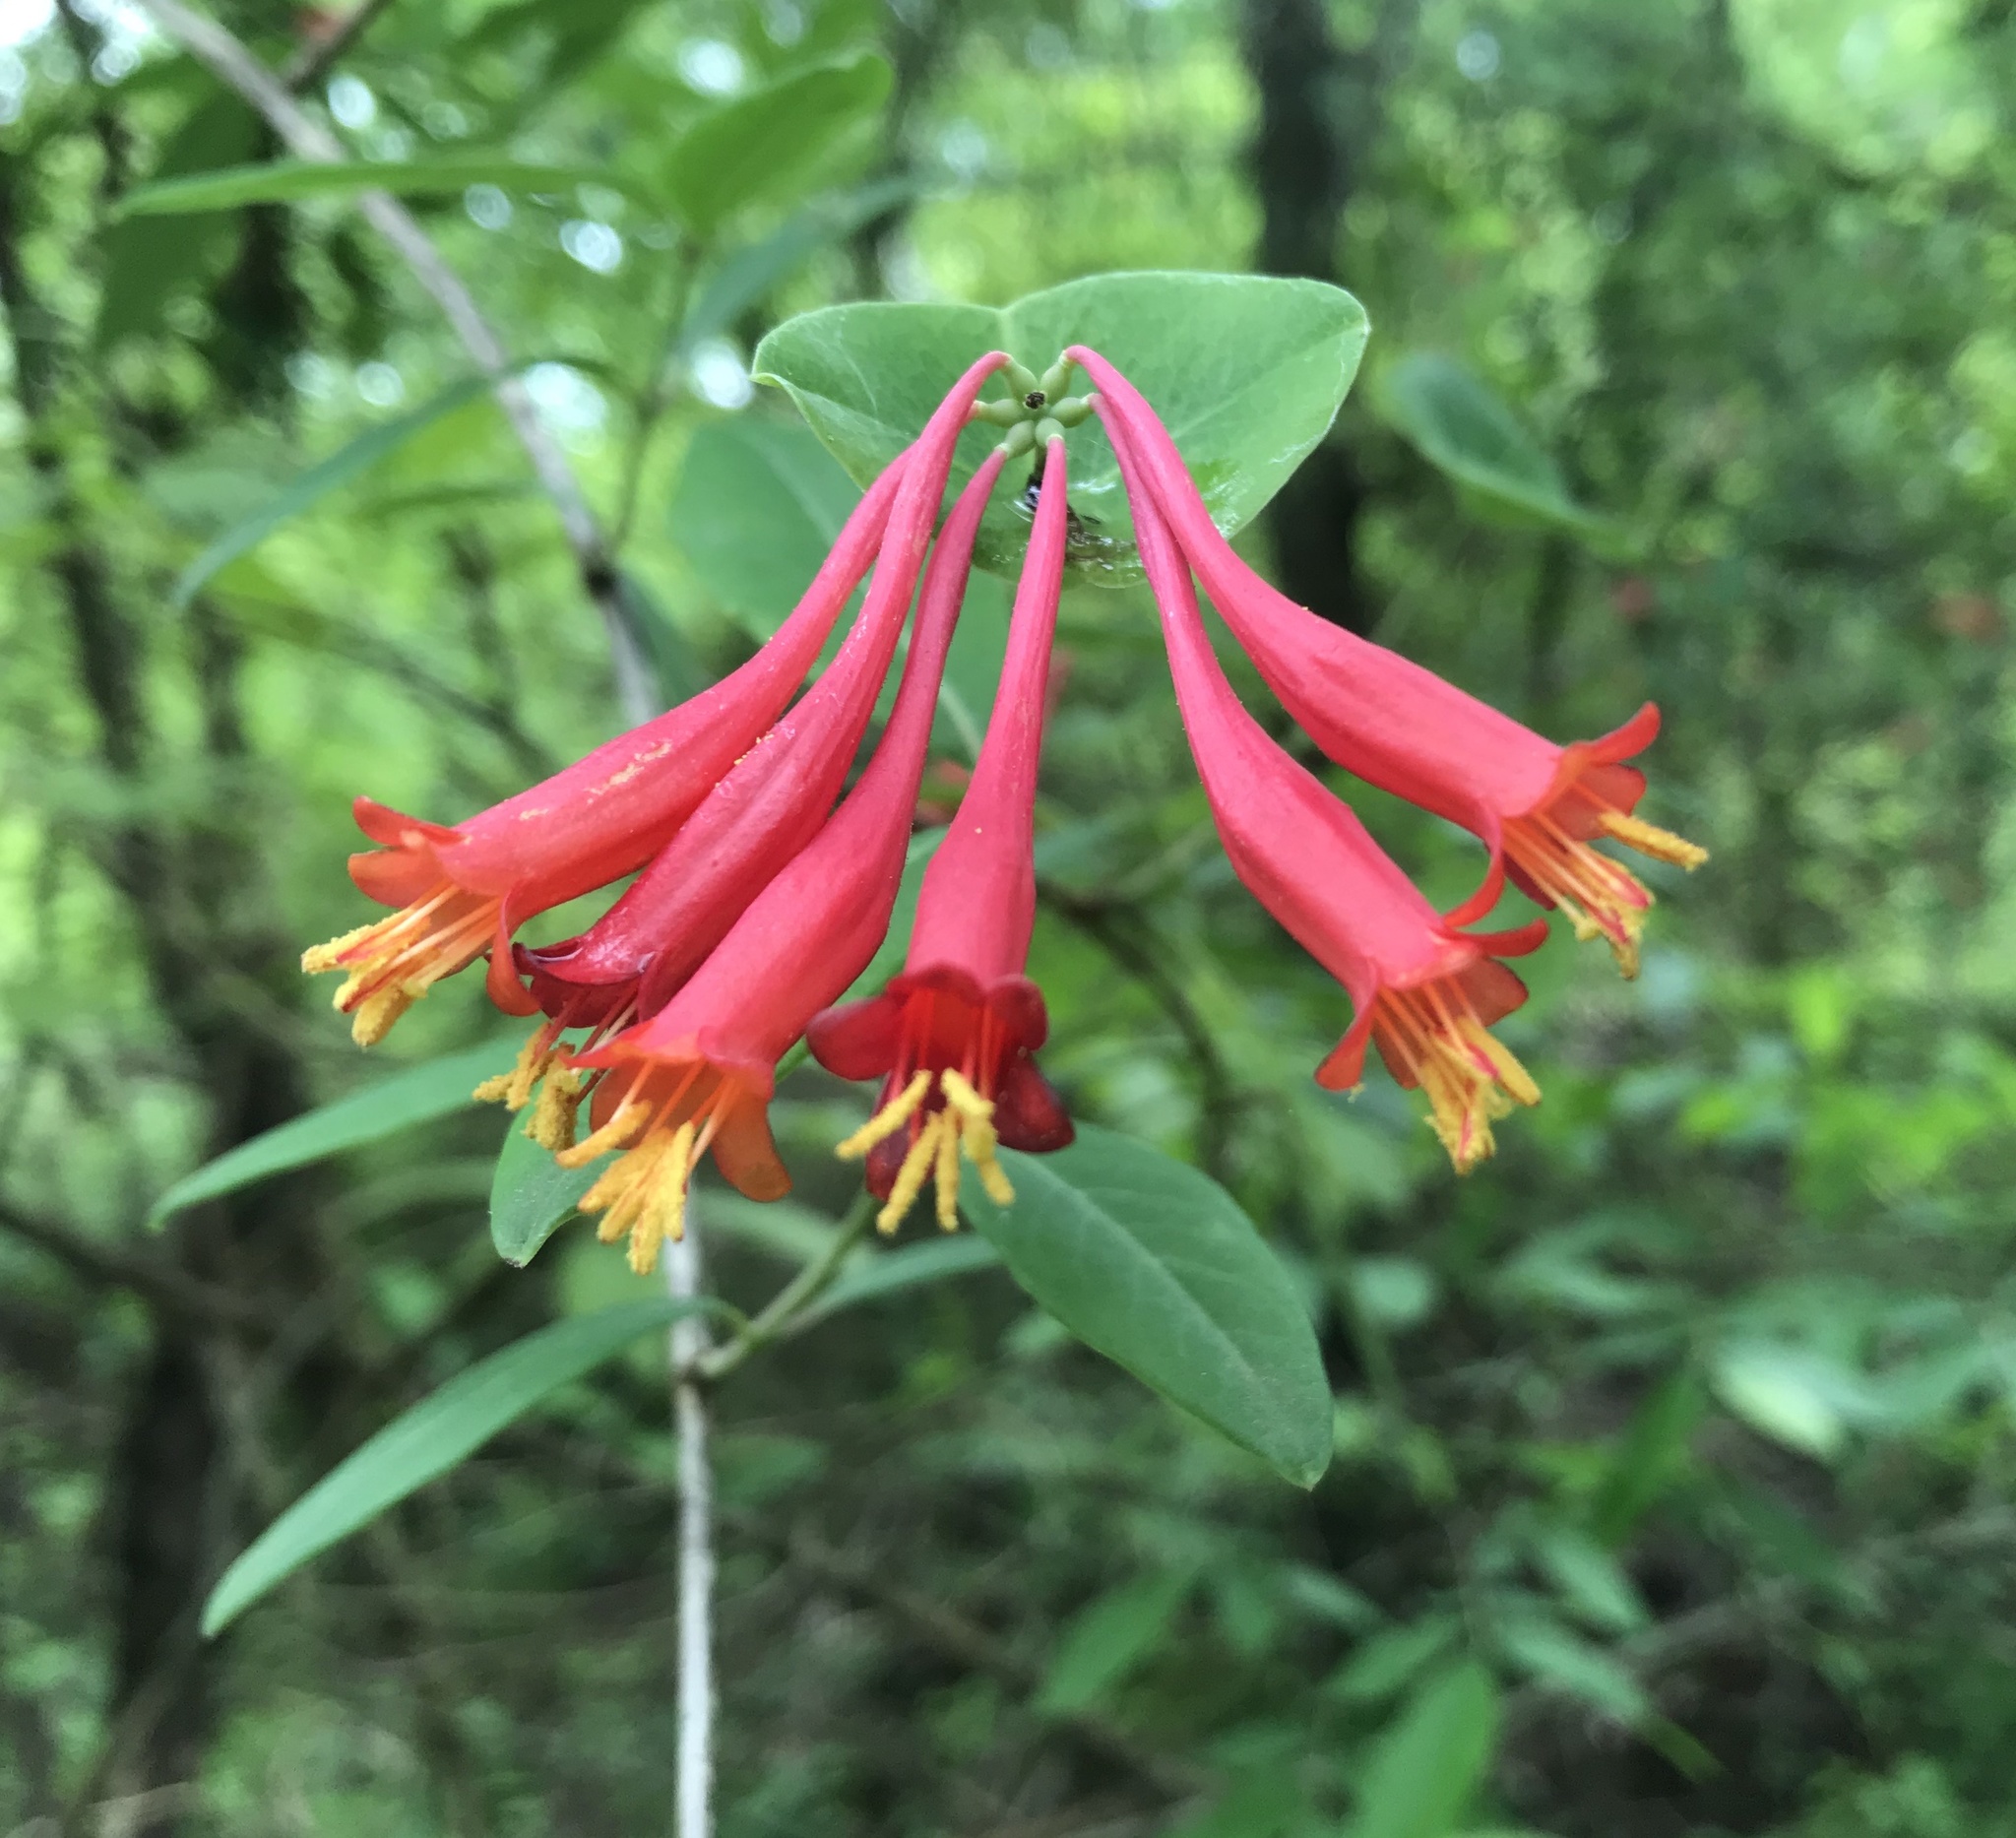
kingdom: Plantae
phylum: Tracheophyta
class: Magnoliopsida
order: Dipsacales
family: Caprifoliaceae
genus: Lonicera
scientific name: Lonicera sempervirens
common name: Coral honeysuckle
